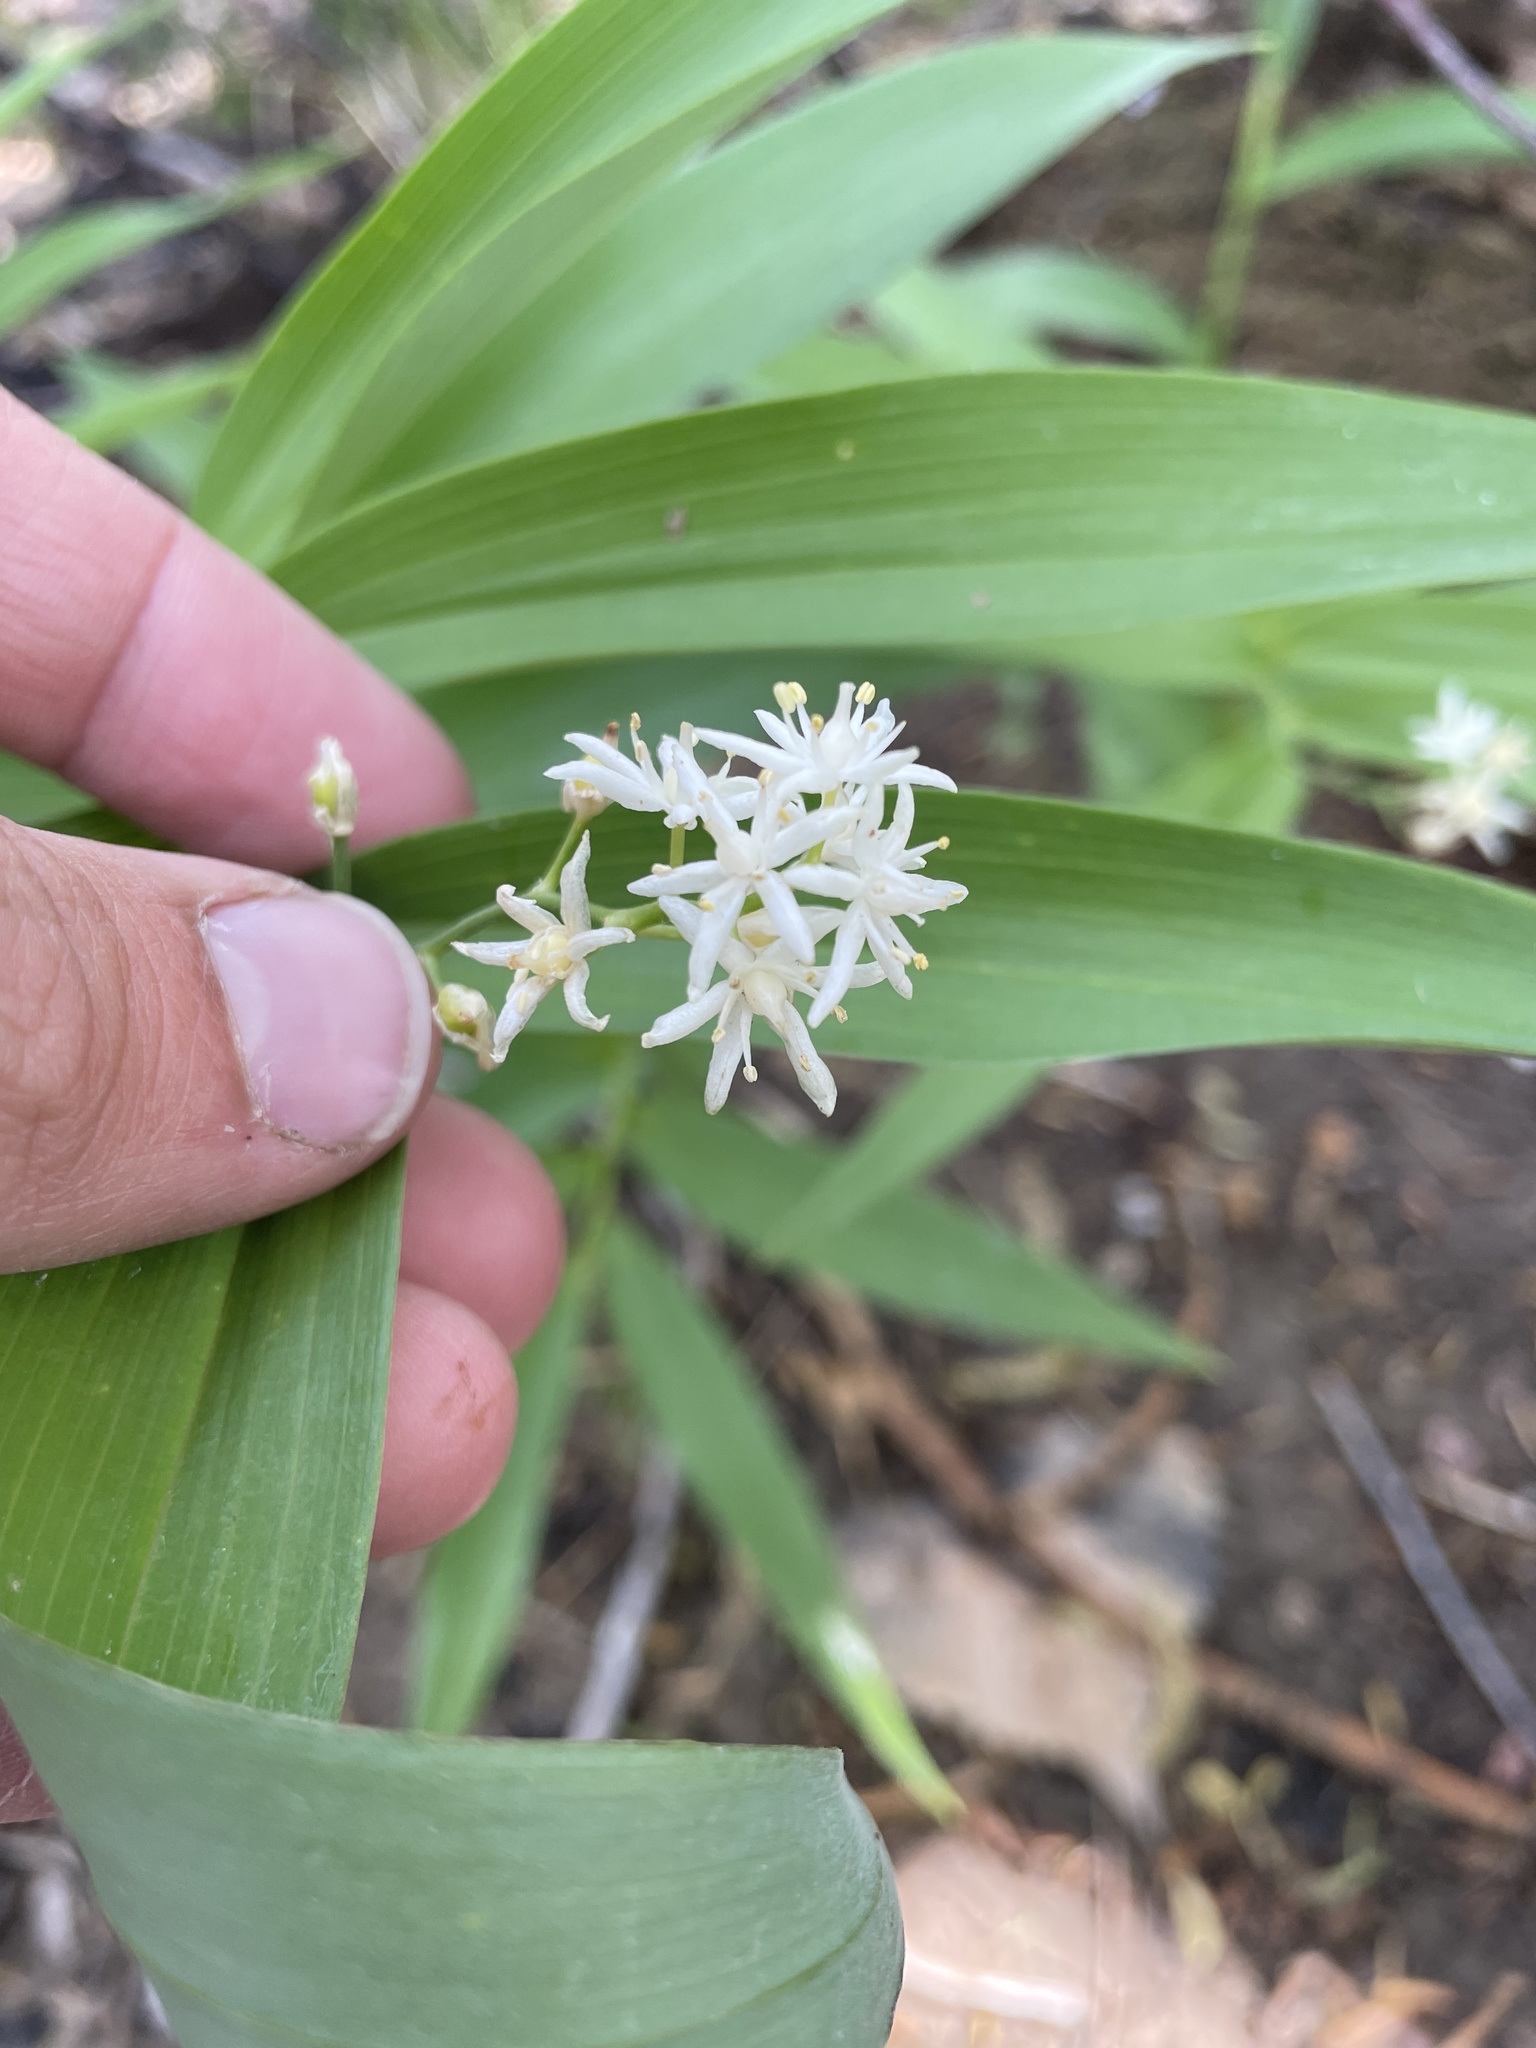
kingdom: Plantae
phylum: Tracheophyta
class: Liliopsida
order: Asparagales
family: Asparagaceae
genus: Maianthemum
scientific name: Maianthemum stellatum
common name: Little false solomon's seal
